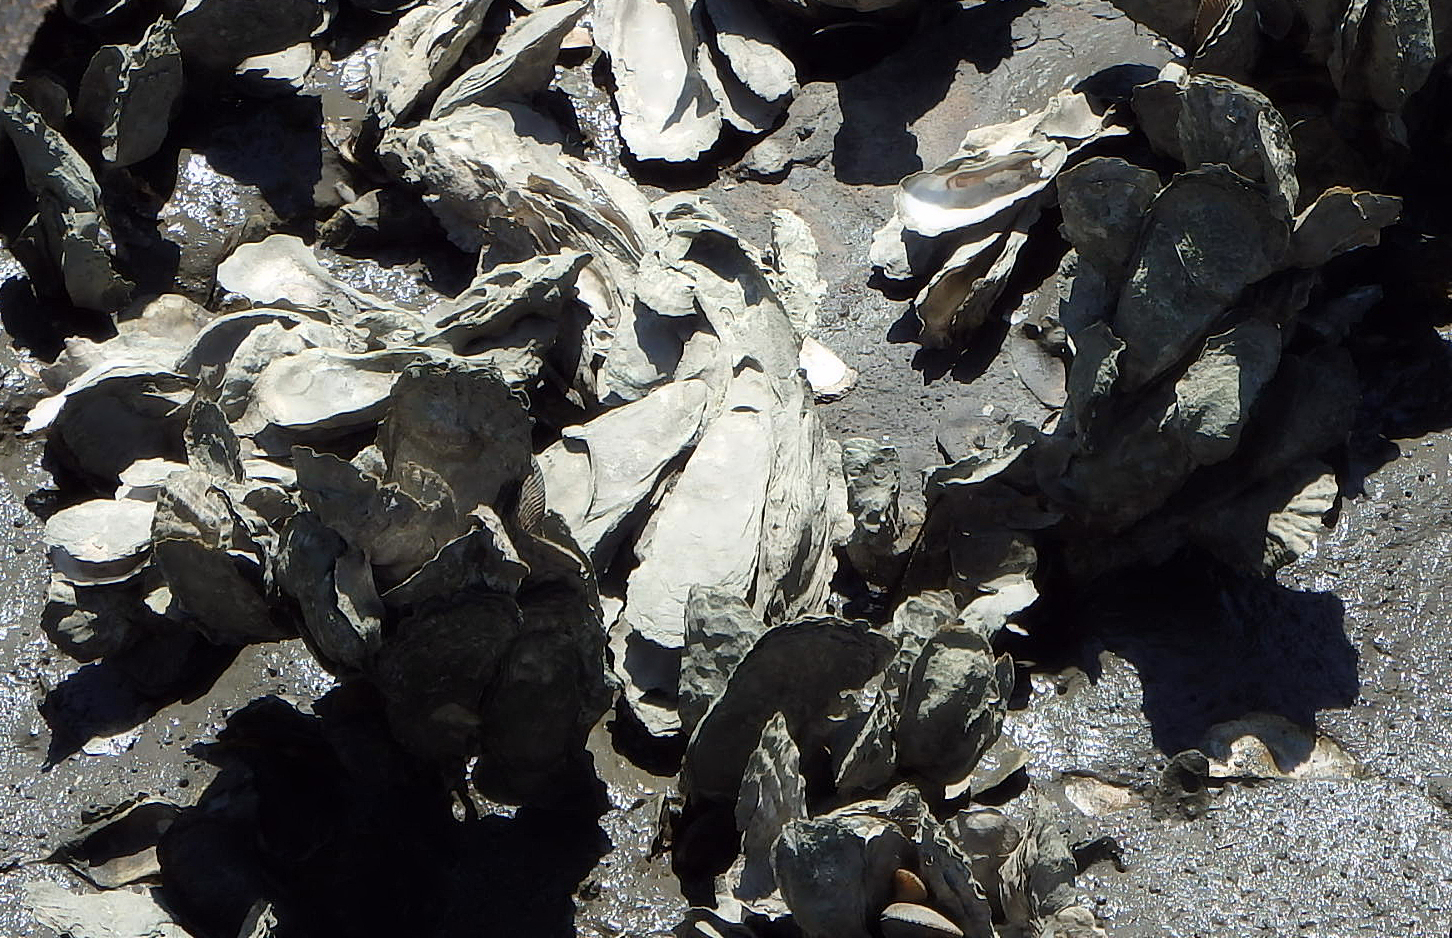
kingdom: Animalia
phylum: Mollusca
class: Bivalvia
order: Ostreida
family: Ostreidae
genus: Crassostrea
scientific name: Crassostrea virginica
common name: American oyster
